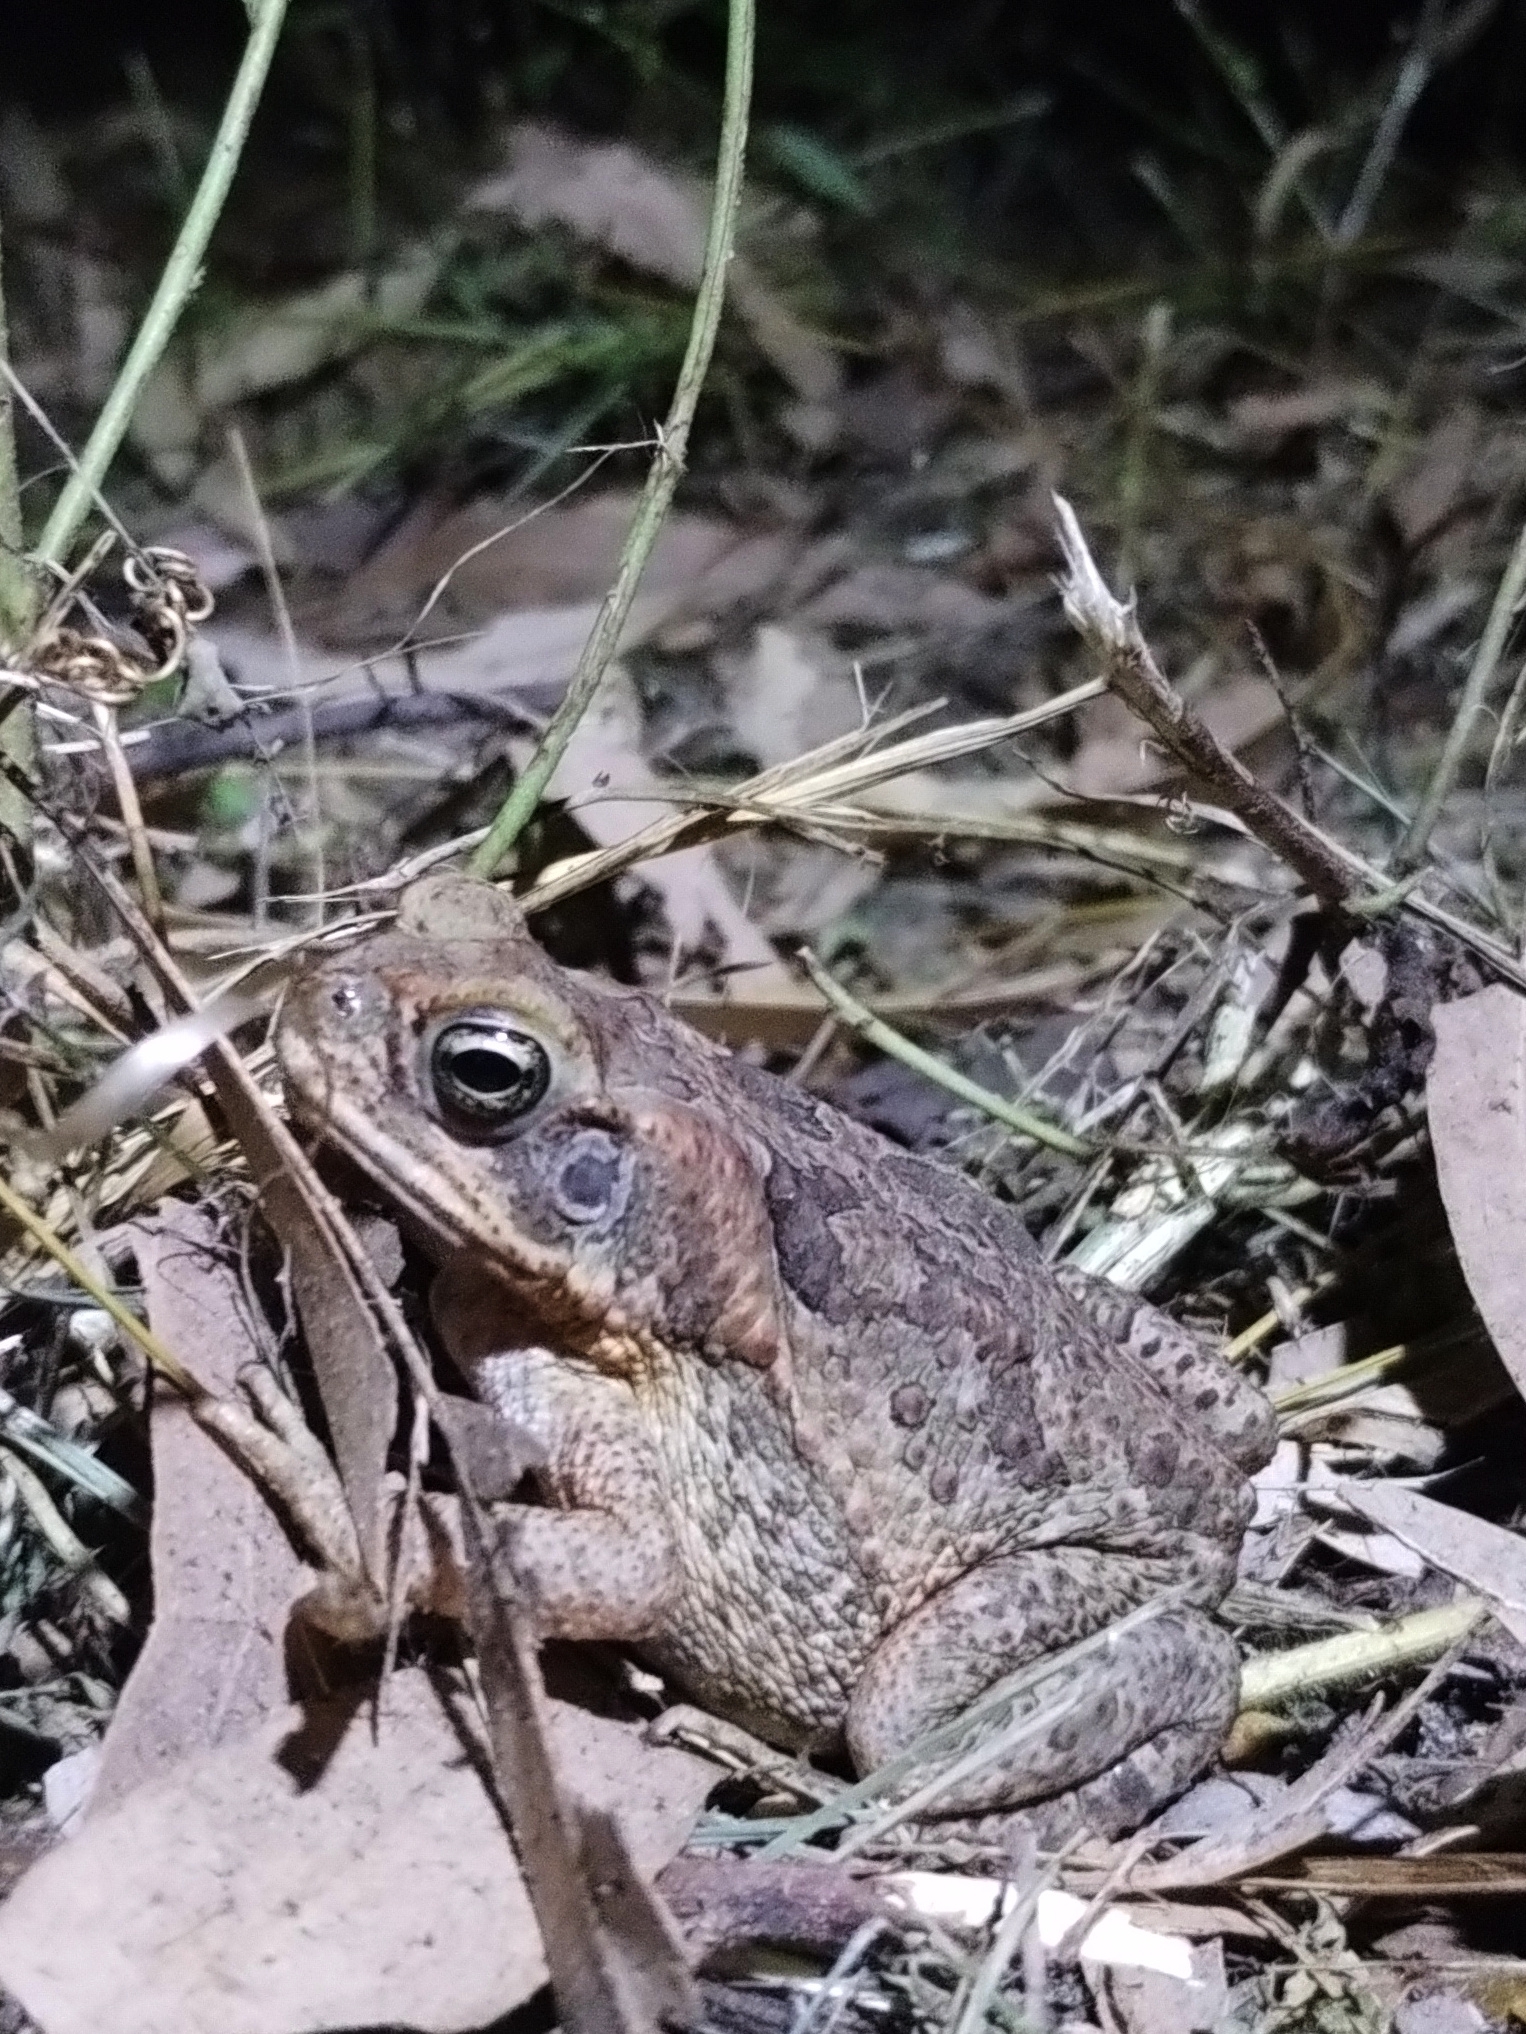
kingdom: Animalia
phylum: Chordata
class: Amphibia
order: Anura
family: Bufonidae
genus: Rhinella
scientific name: Rhinella marina
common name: Cane toad
